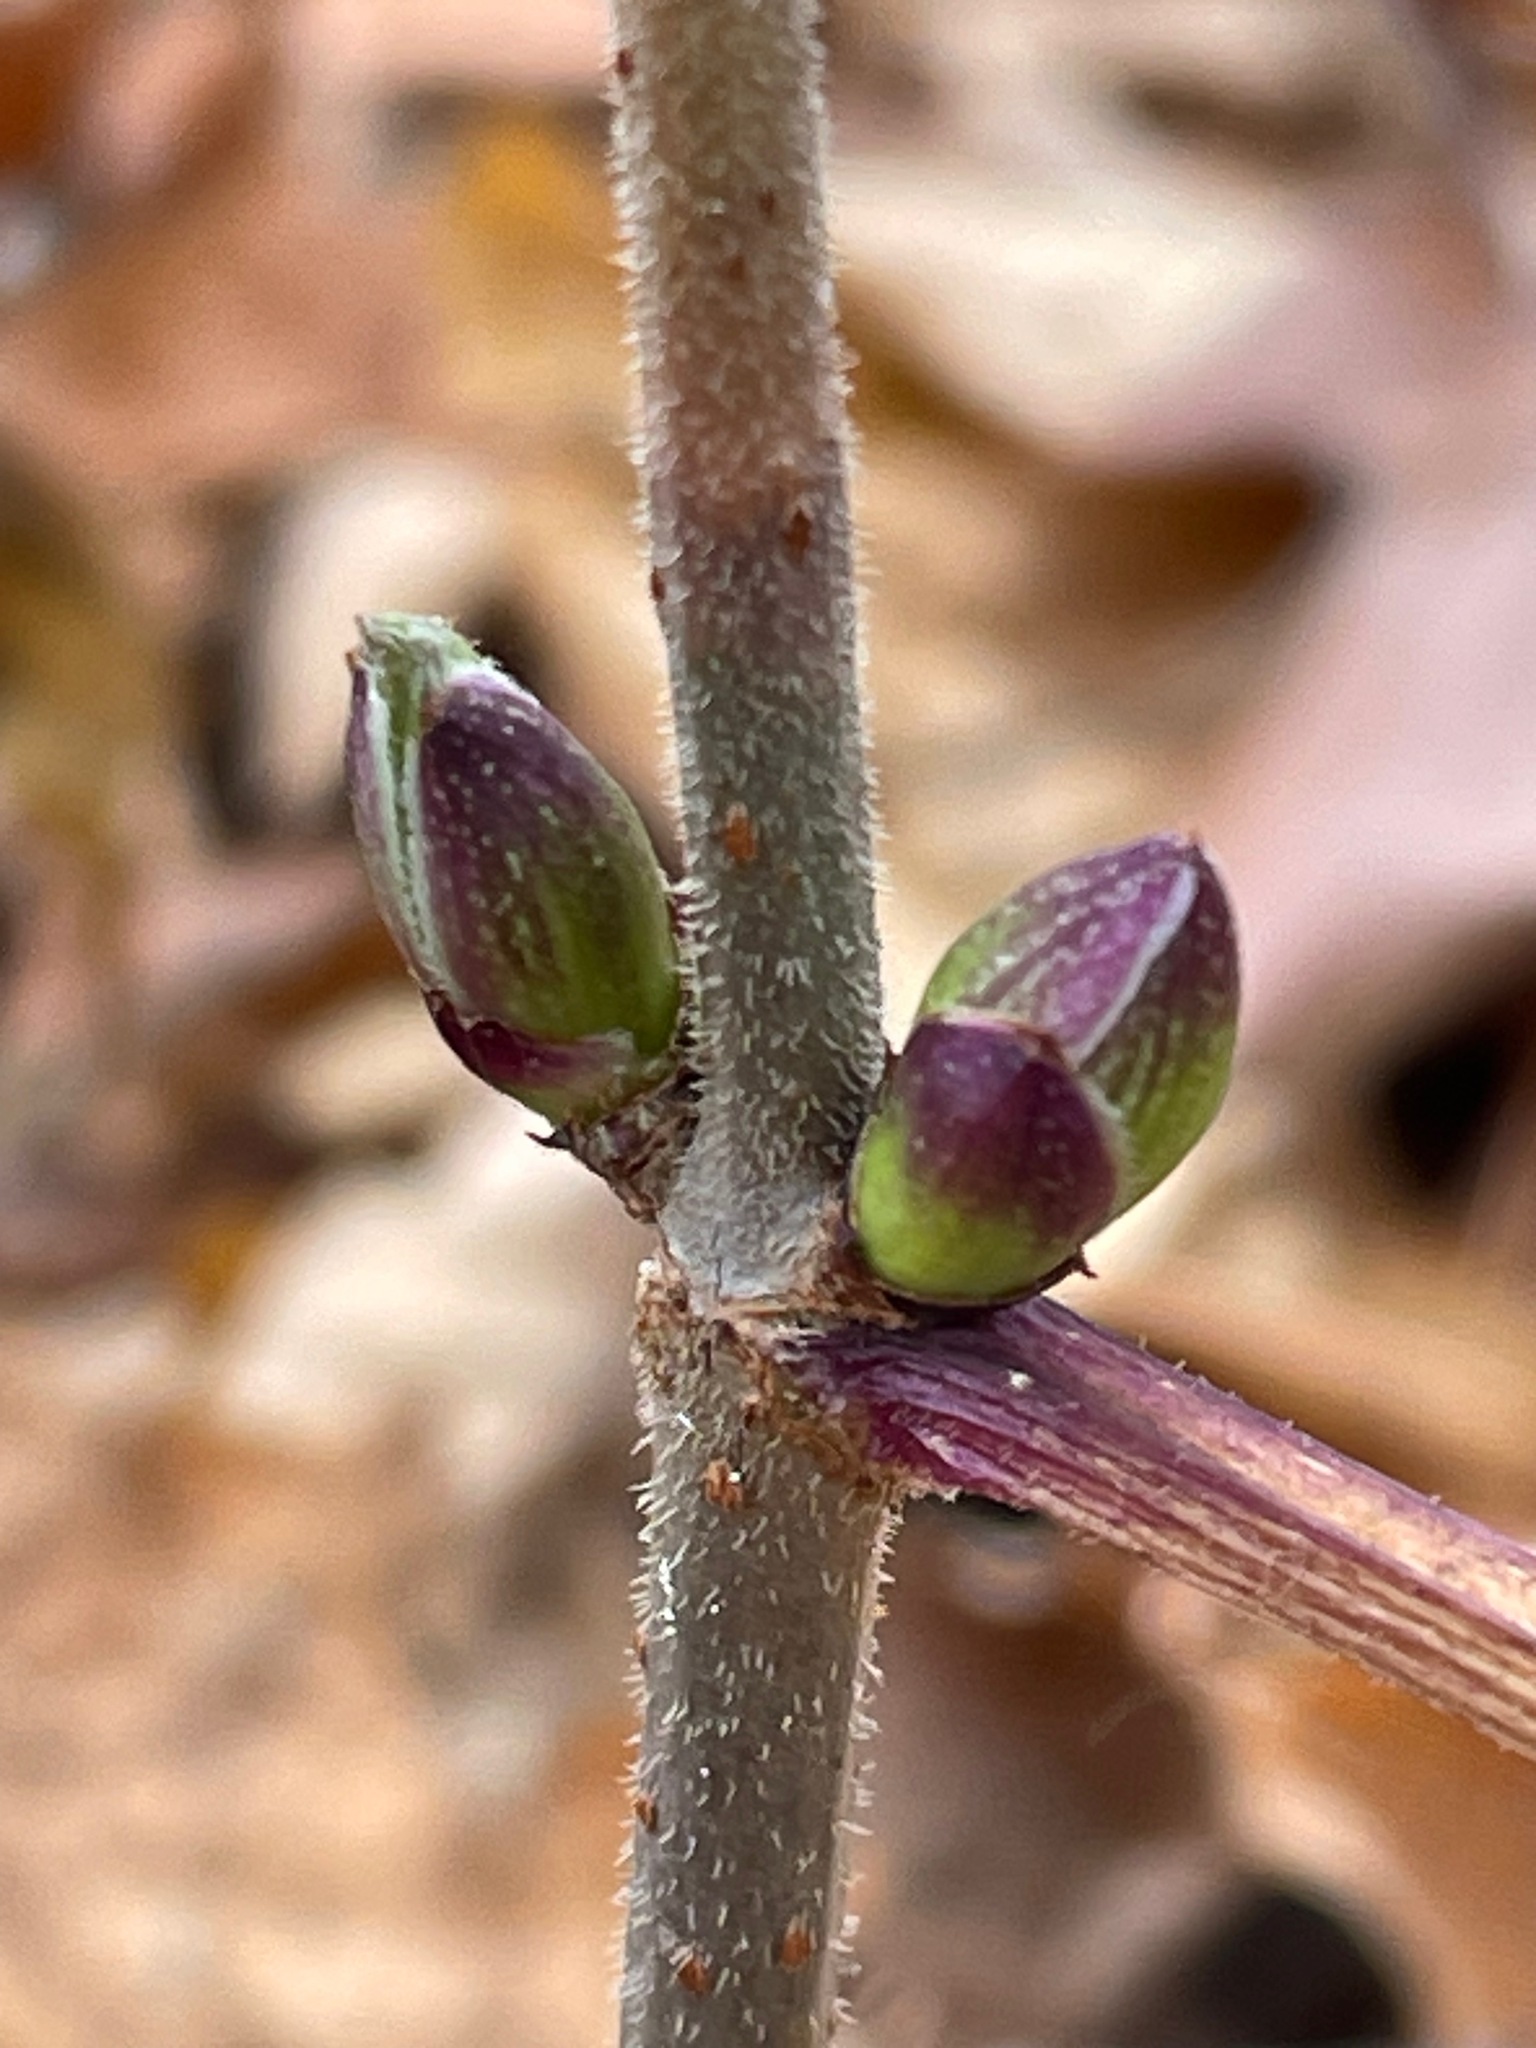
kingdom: Plantae
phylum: Tracheophyta
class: Magnoliopsida
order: Dipsacales
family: Viburnaceae
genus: Sambucus
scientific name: Sambucus racemosa
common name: Red-berried elder
